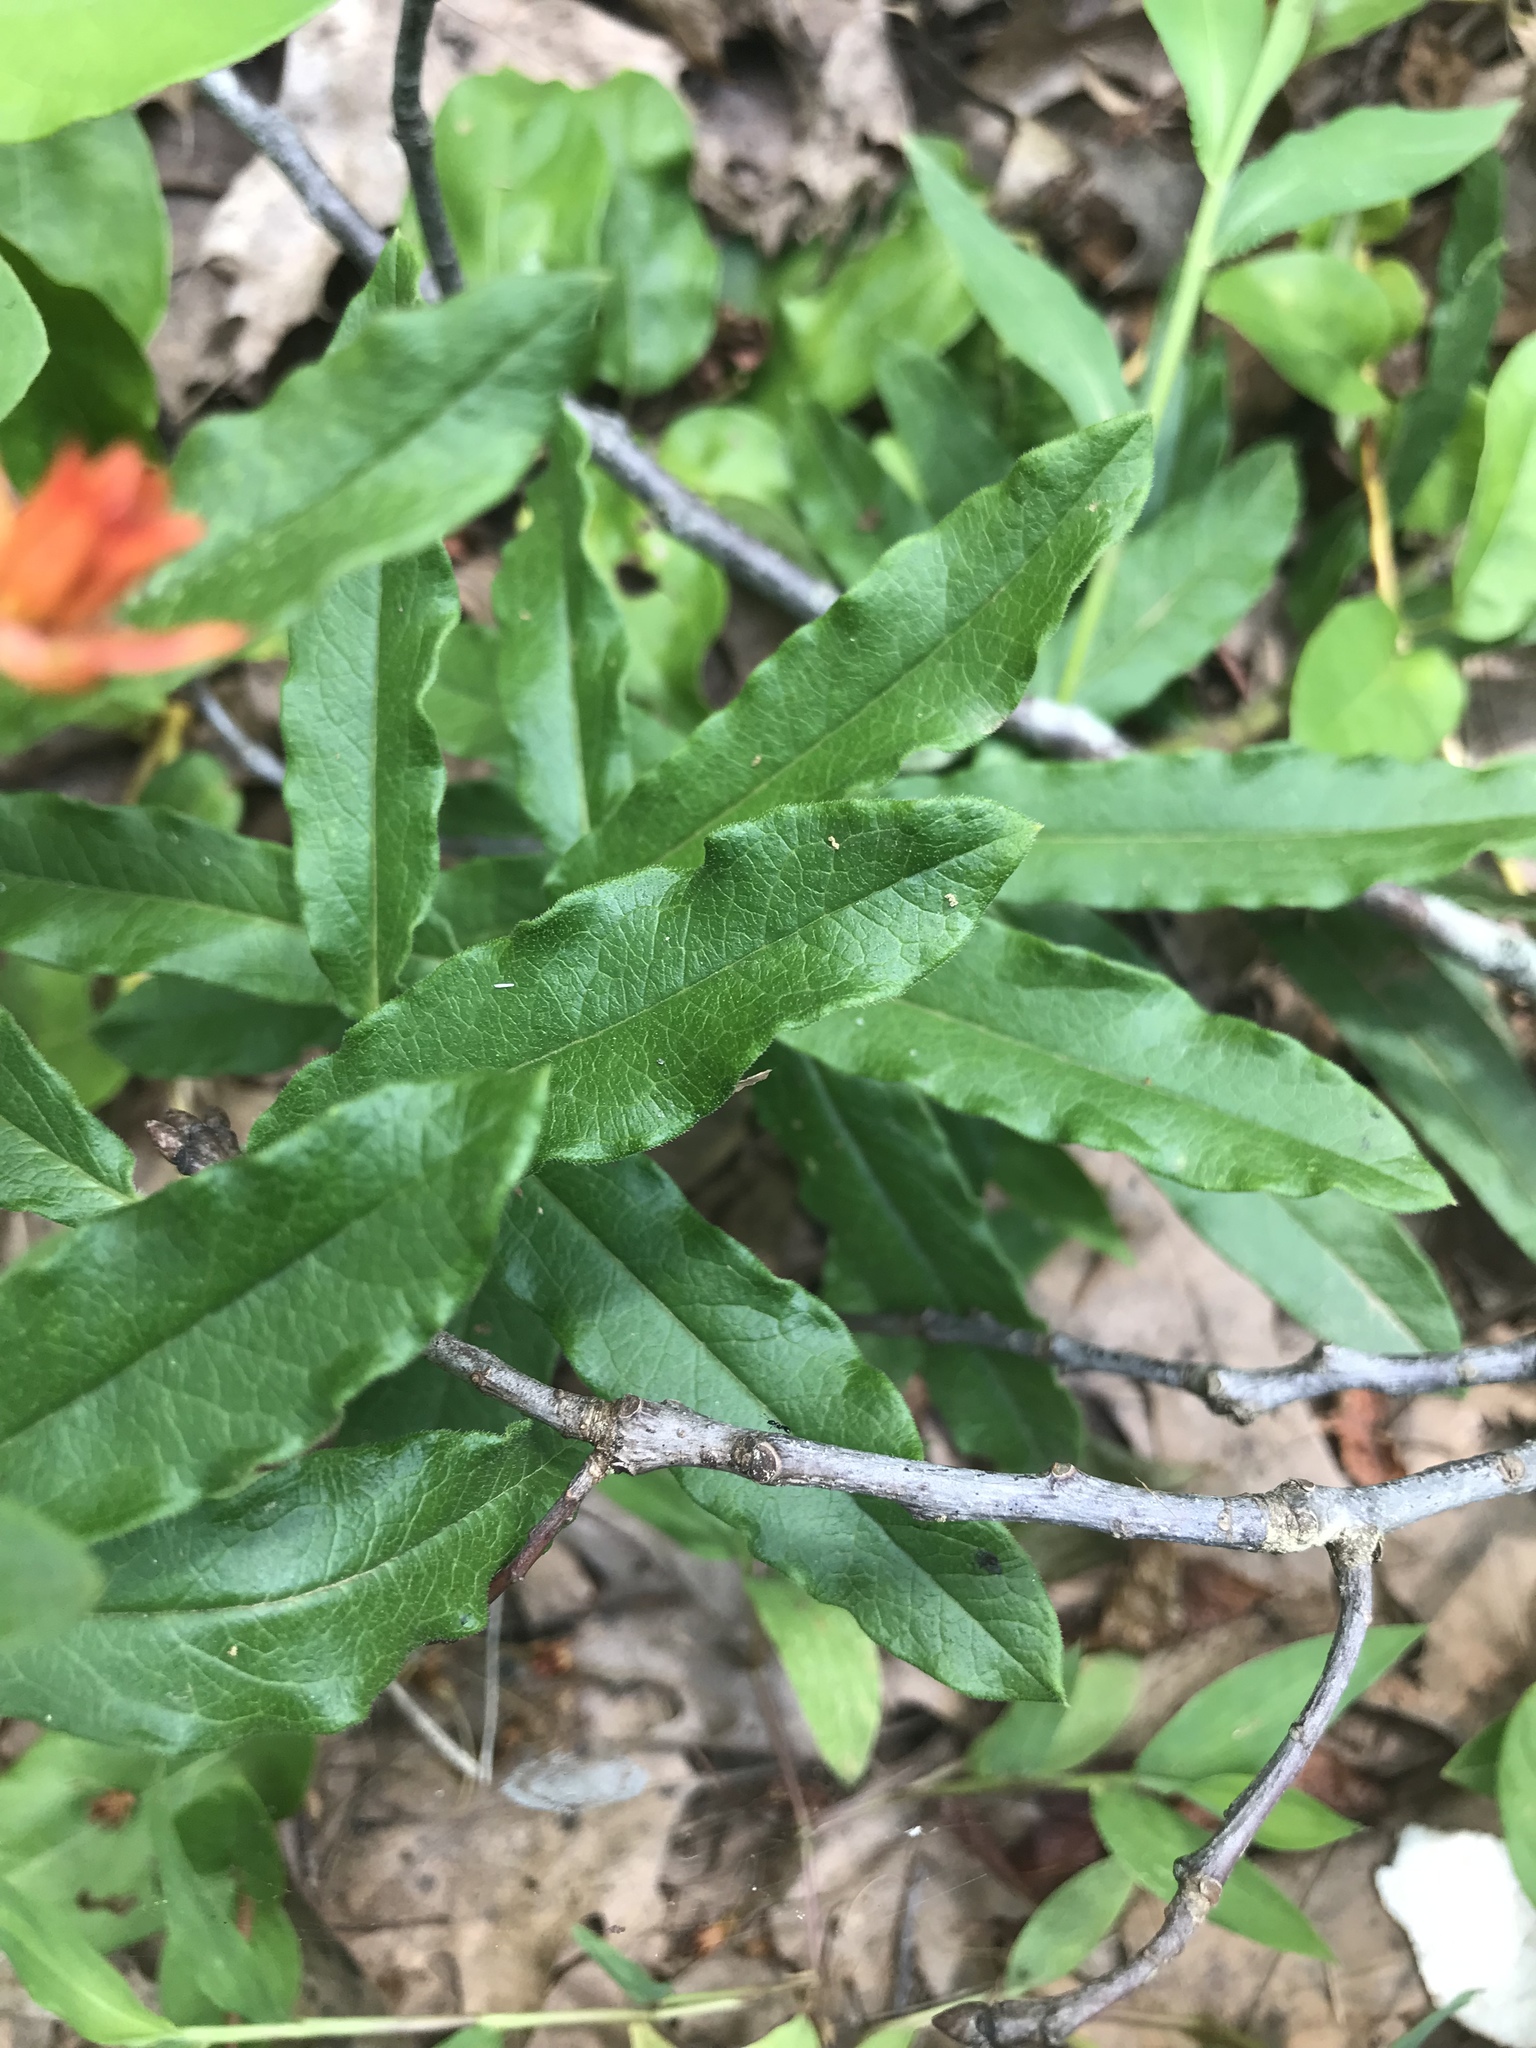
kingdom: Plantae
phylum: Tracheophyta
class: Magnoliopsida
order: Gentianales
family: Apocynaceae
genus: Asclepias
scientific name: Asclepias tuberosa
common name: Butterfly milkweed
